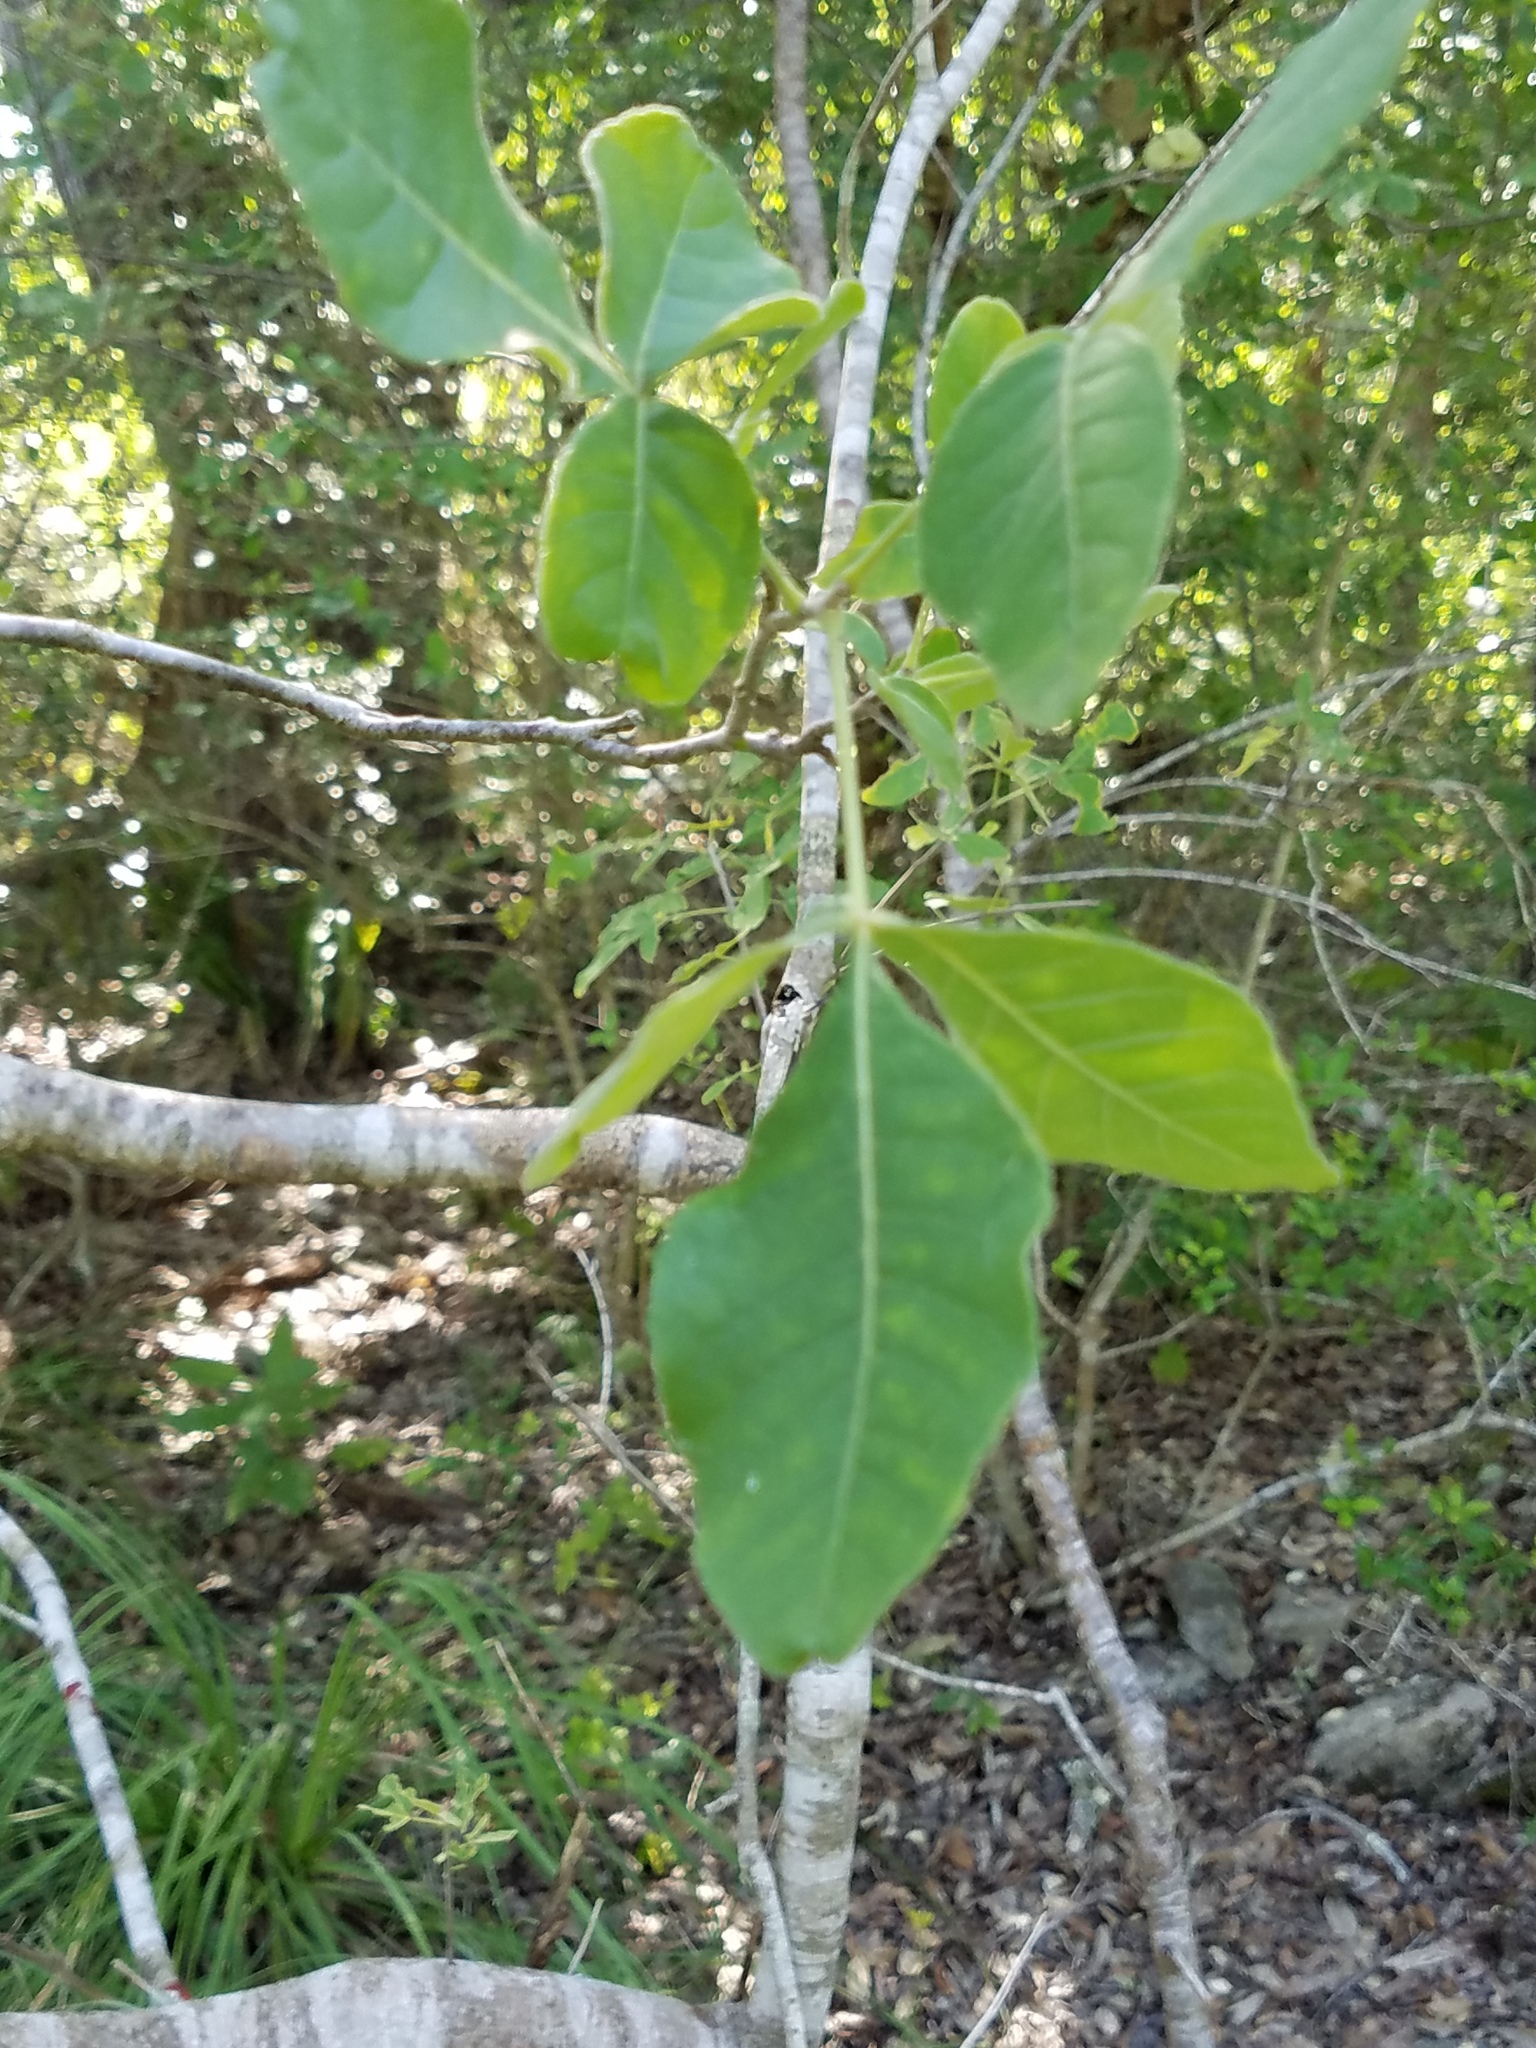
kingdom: Plantae
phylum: Tracheophyta
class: Magnoliopsida
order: Sapindales
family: Rutaceae
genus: Ptelea
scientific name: Ptelea trifoliata
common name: Common hop-tree
